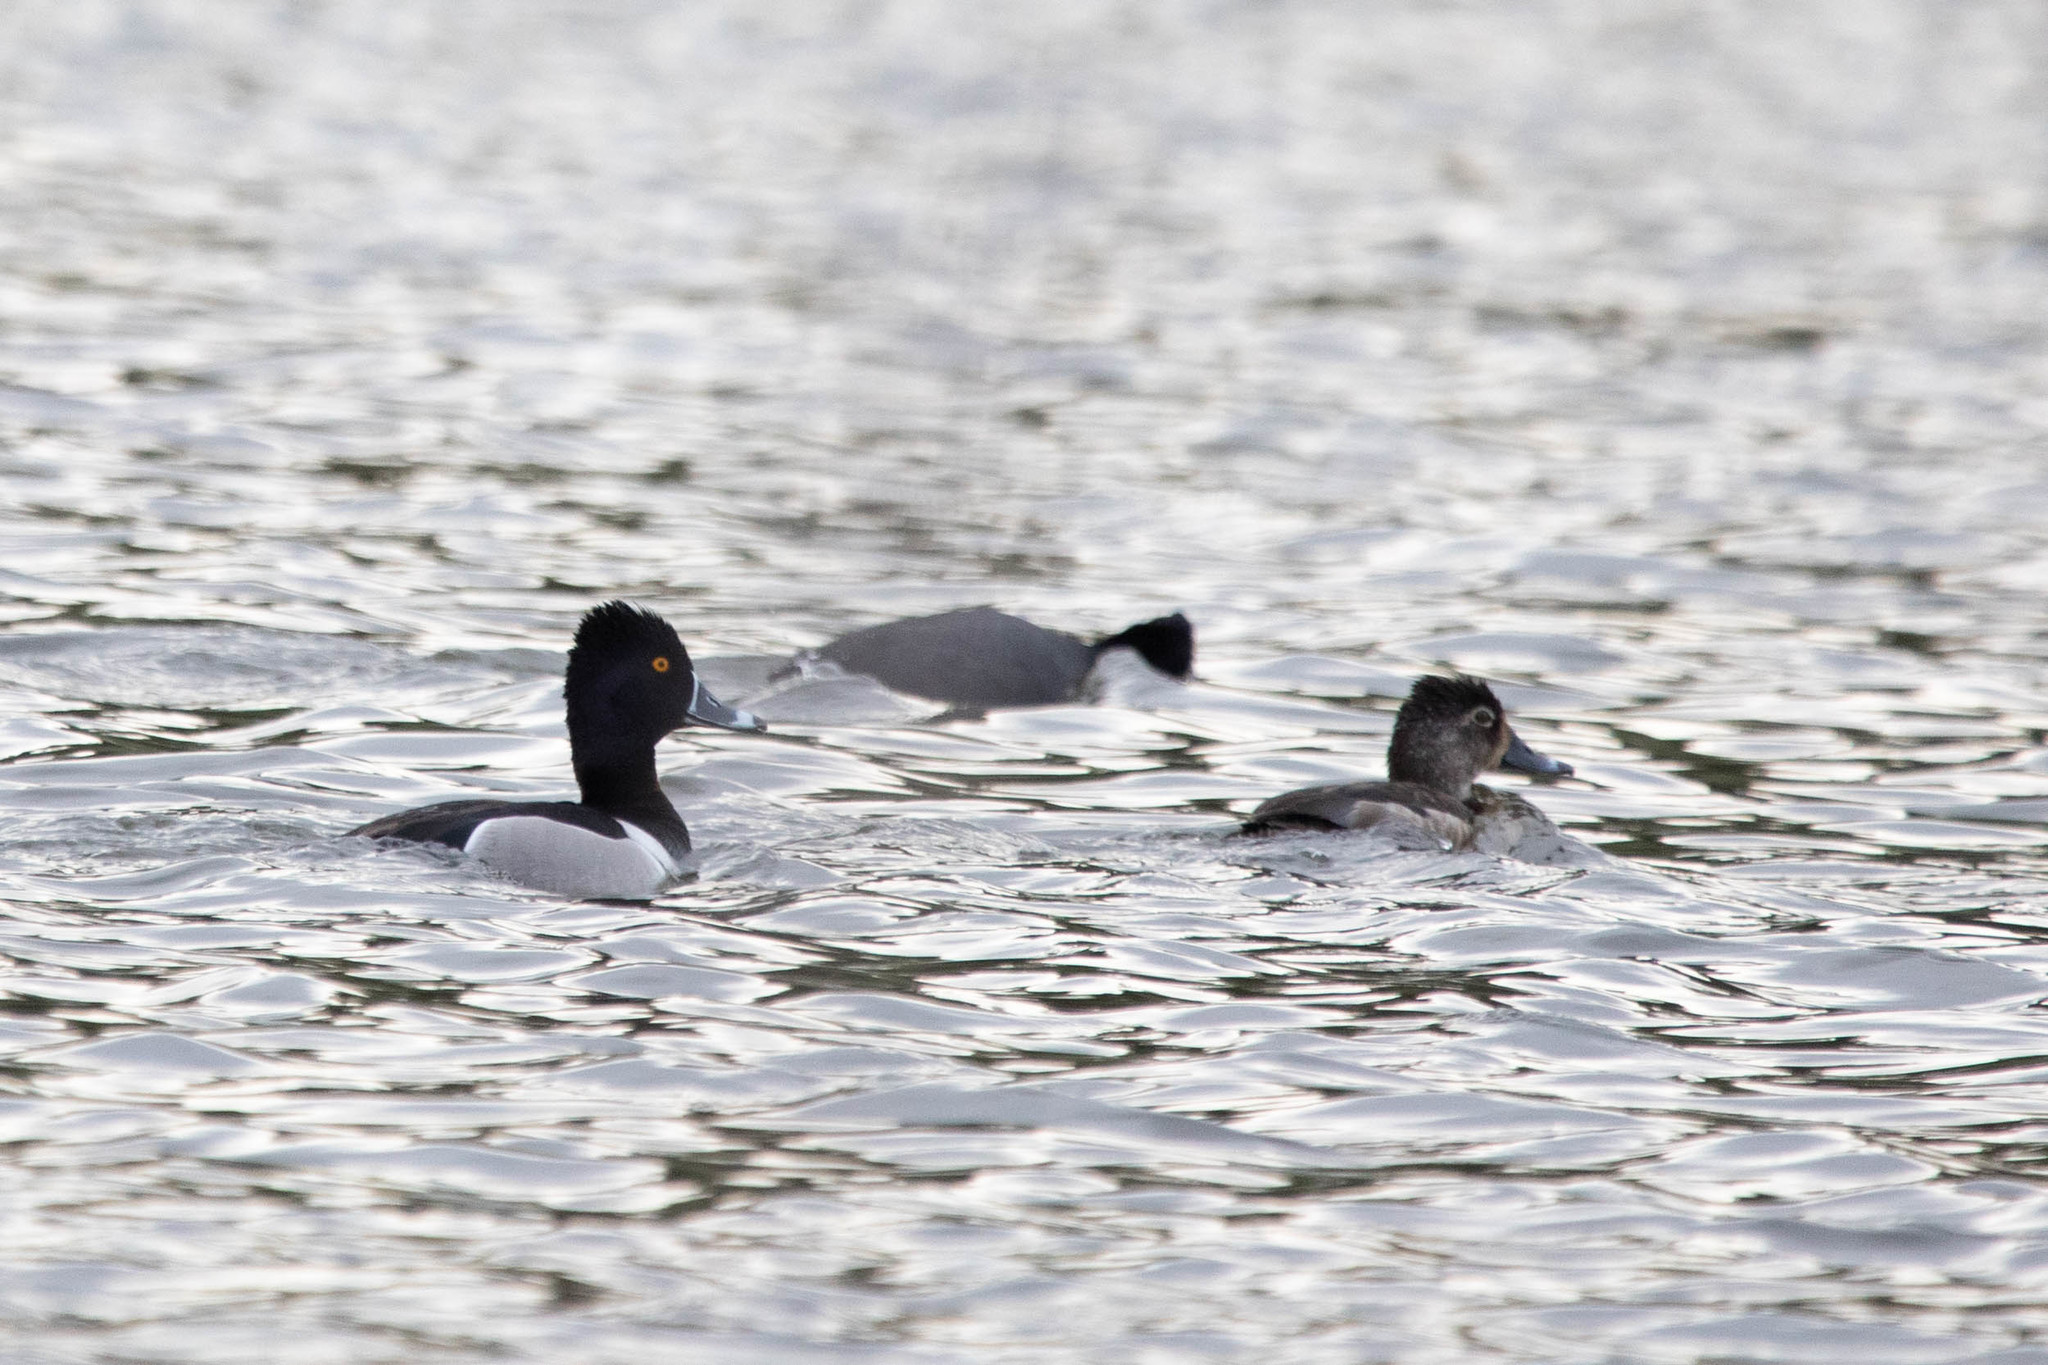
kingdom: Animalia
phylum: Chordata
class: Aves
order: Anseriformes
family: Anatidae
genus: Aythya
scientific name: Aythya collaris
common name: Ring-necked duck
